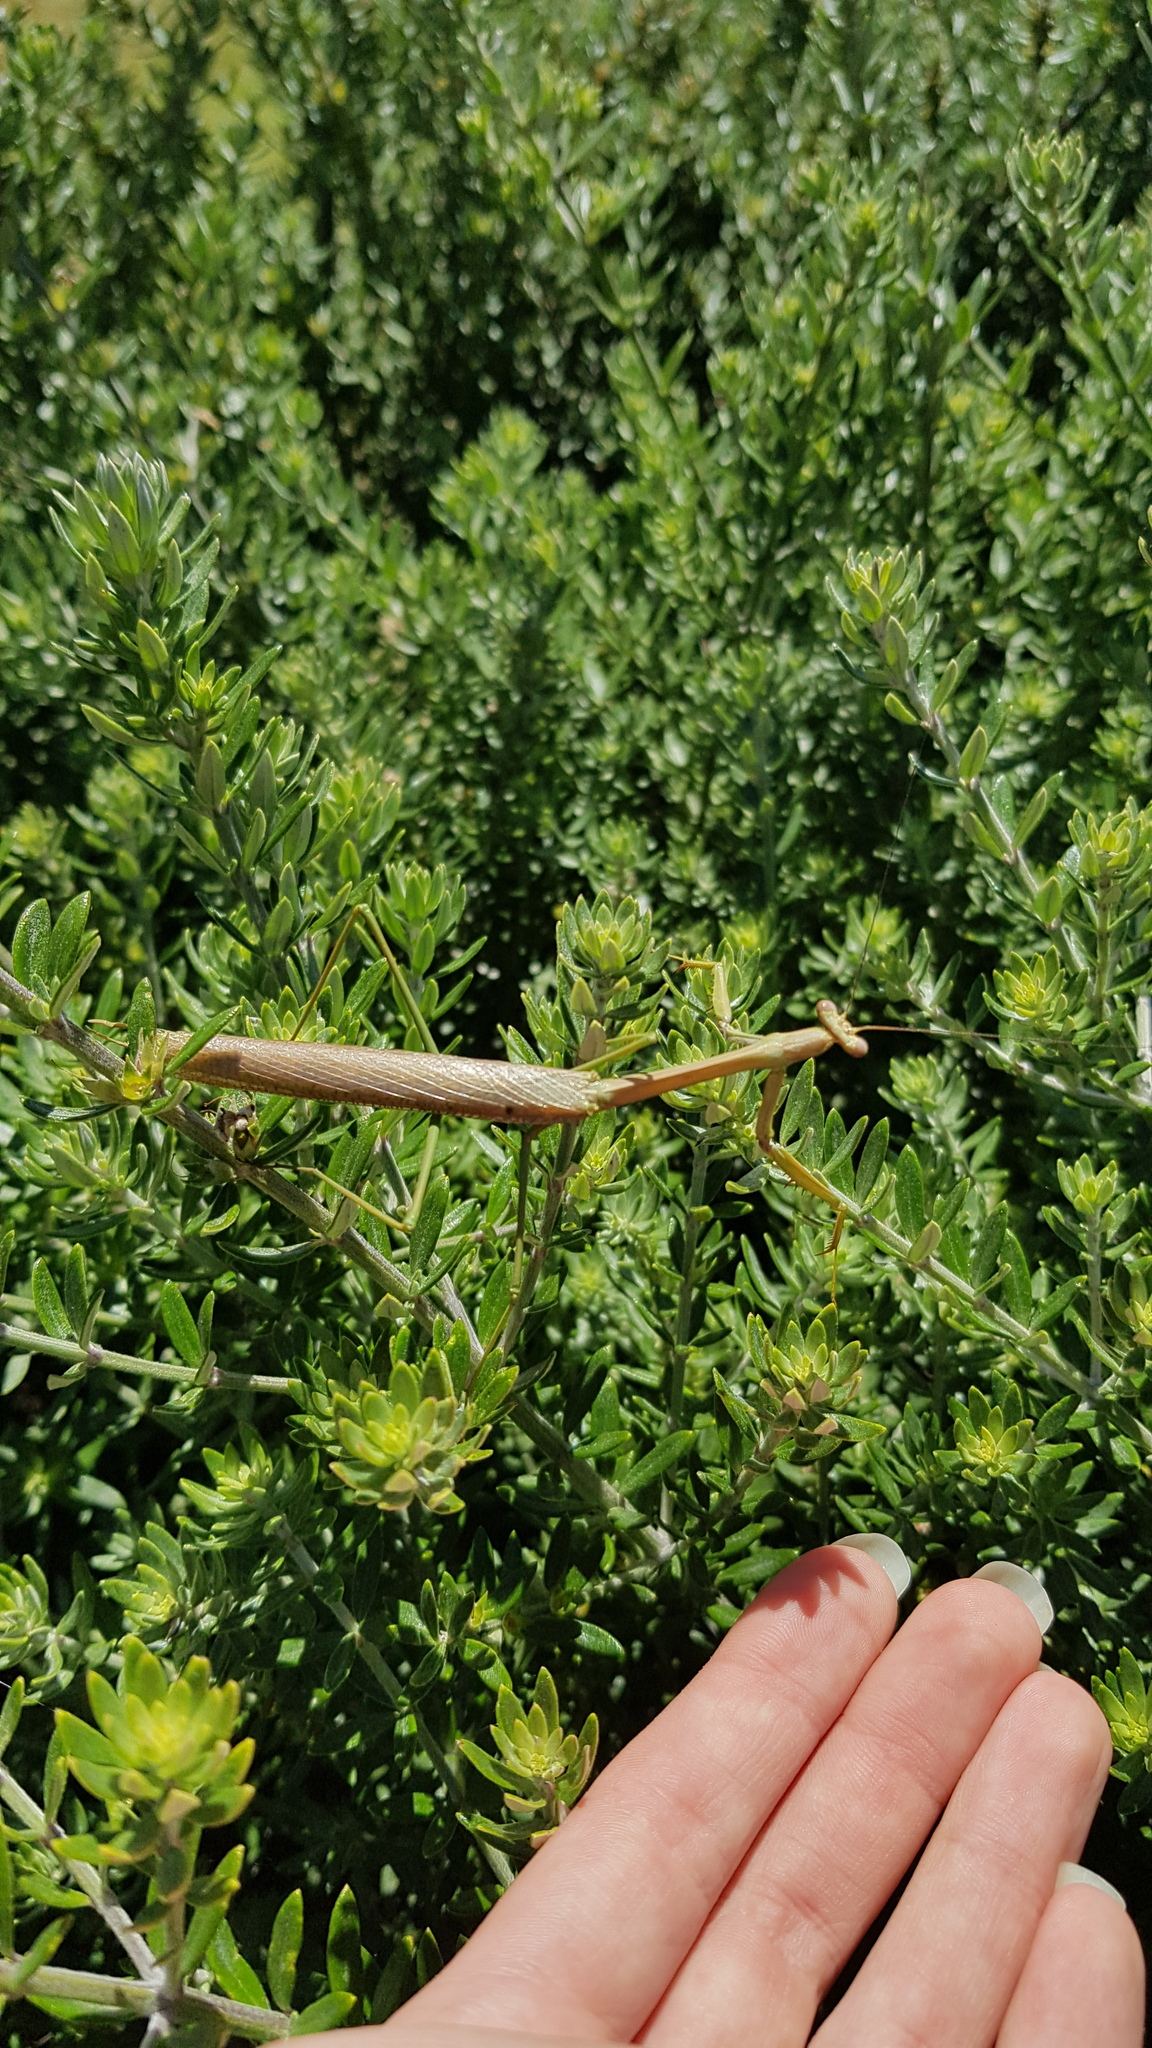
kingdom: Animalia
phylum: Arthropoda
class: Insecta
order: Mantodea
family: Mantidae
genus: Archimantis
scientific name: Archimantis latistyla
